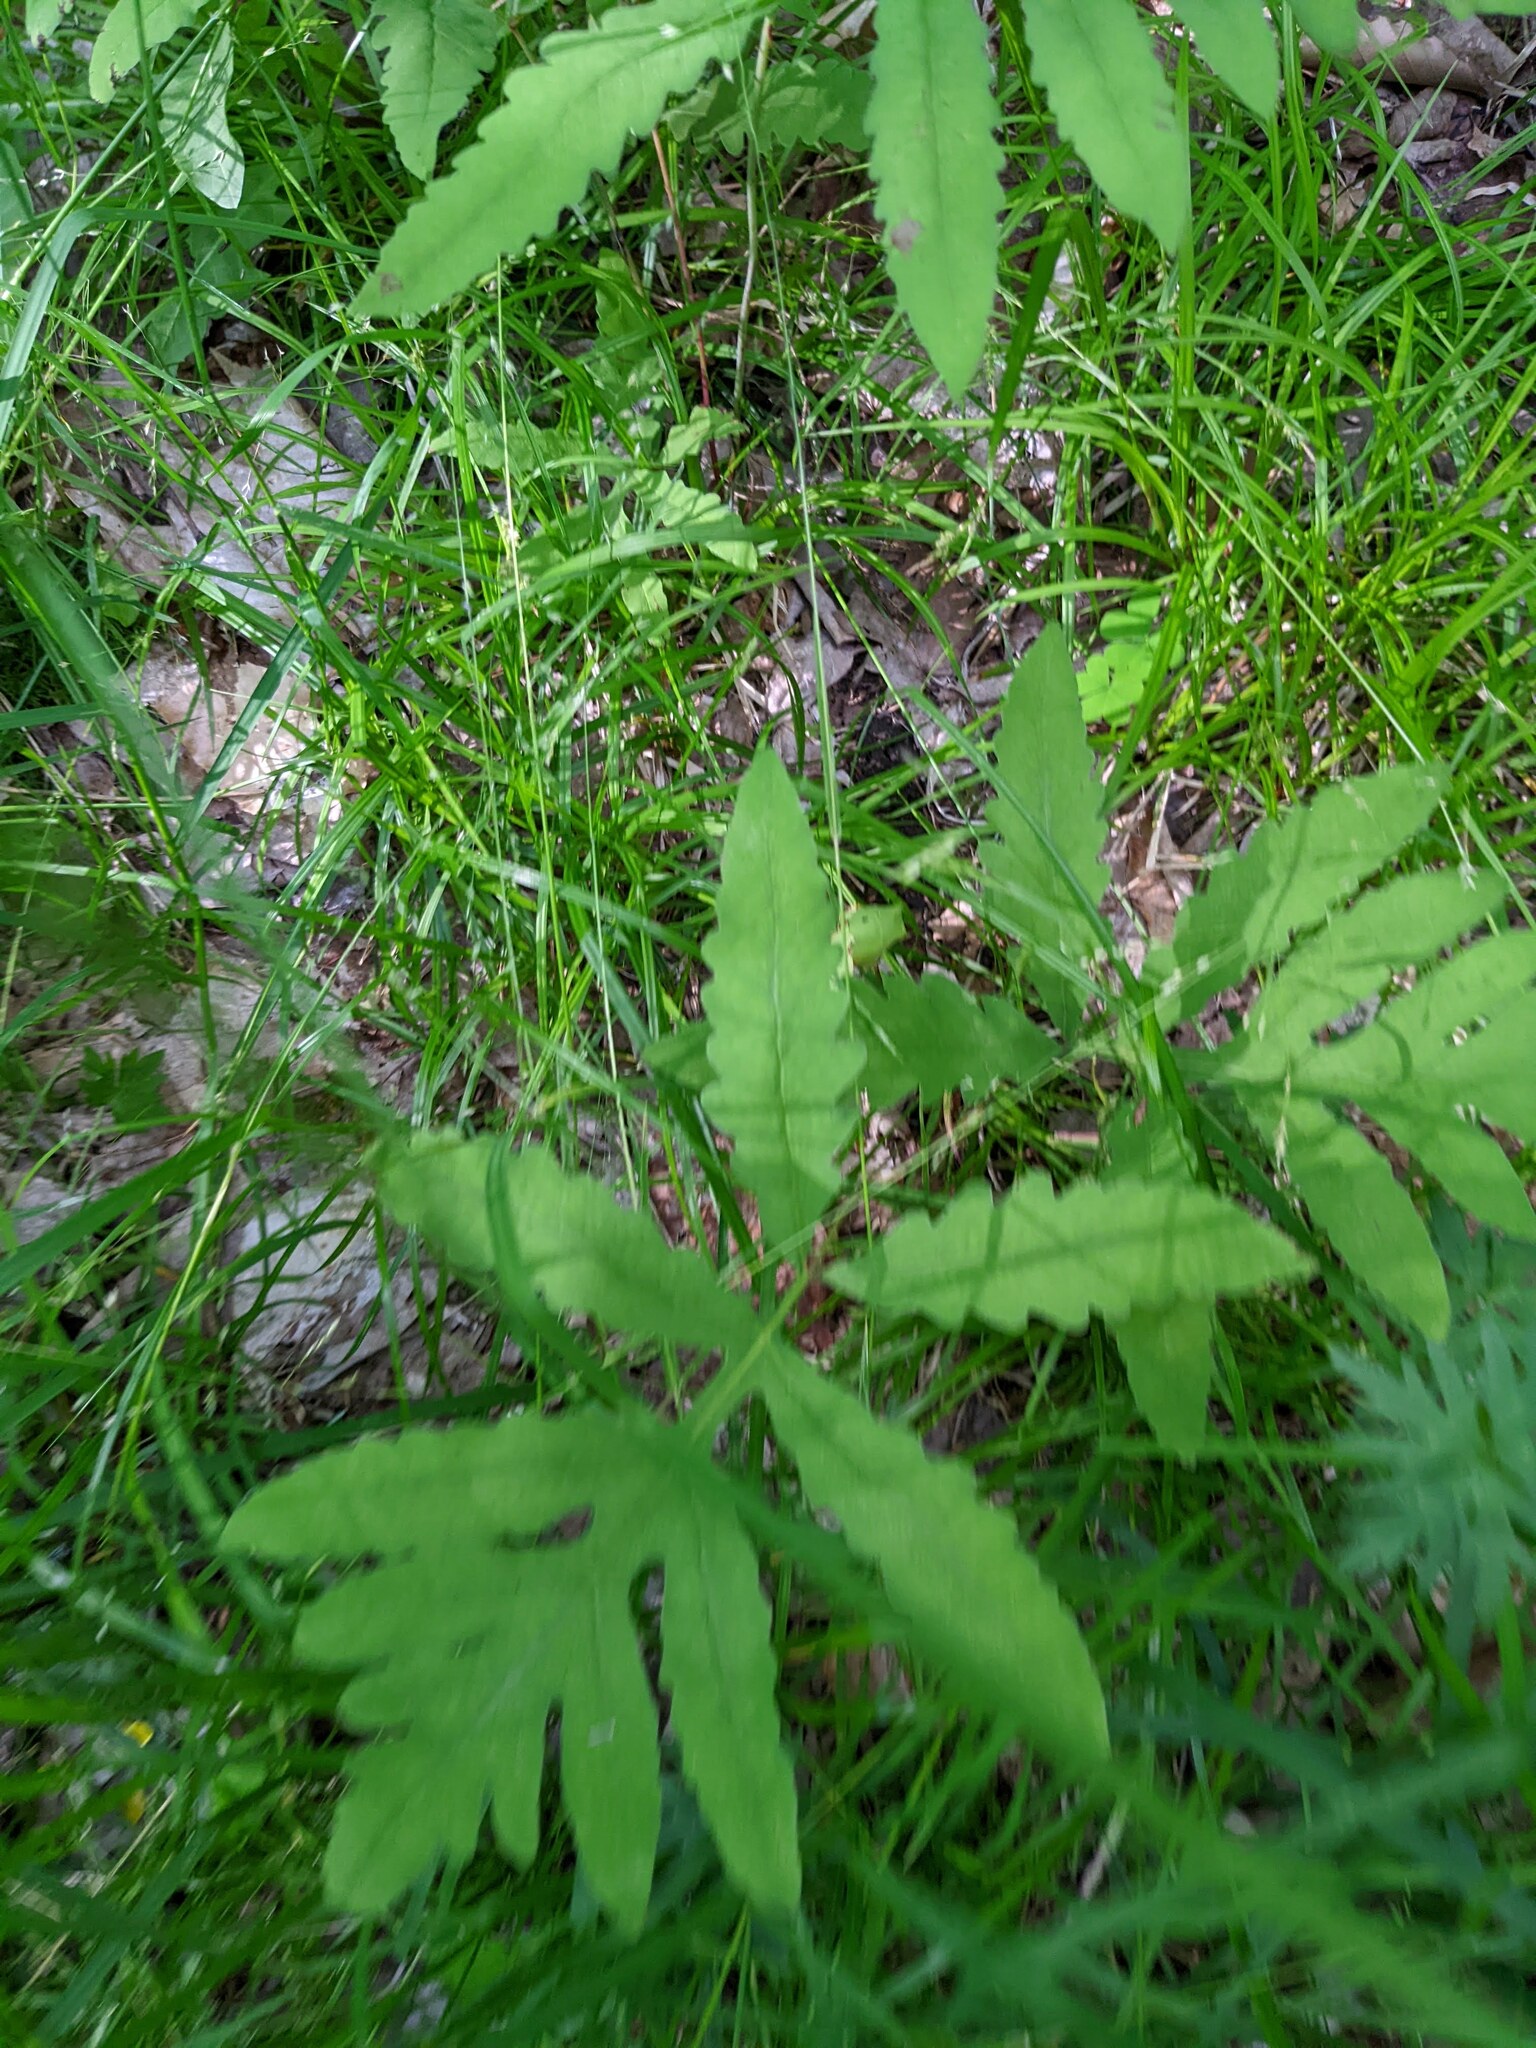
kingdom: Plantae
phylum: Tracheophyta
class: Polypodiopsida
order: Polypodiales
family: Onocleaceae
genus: Onoclea
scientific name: Onoclea sensibilis
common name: Sensitive fern
